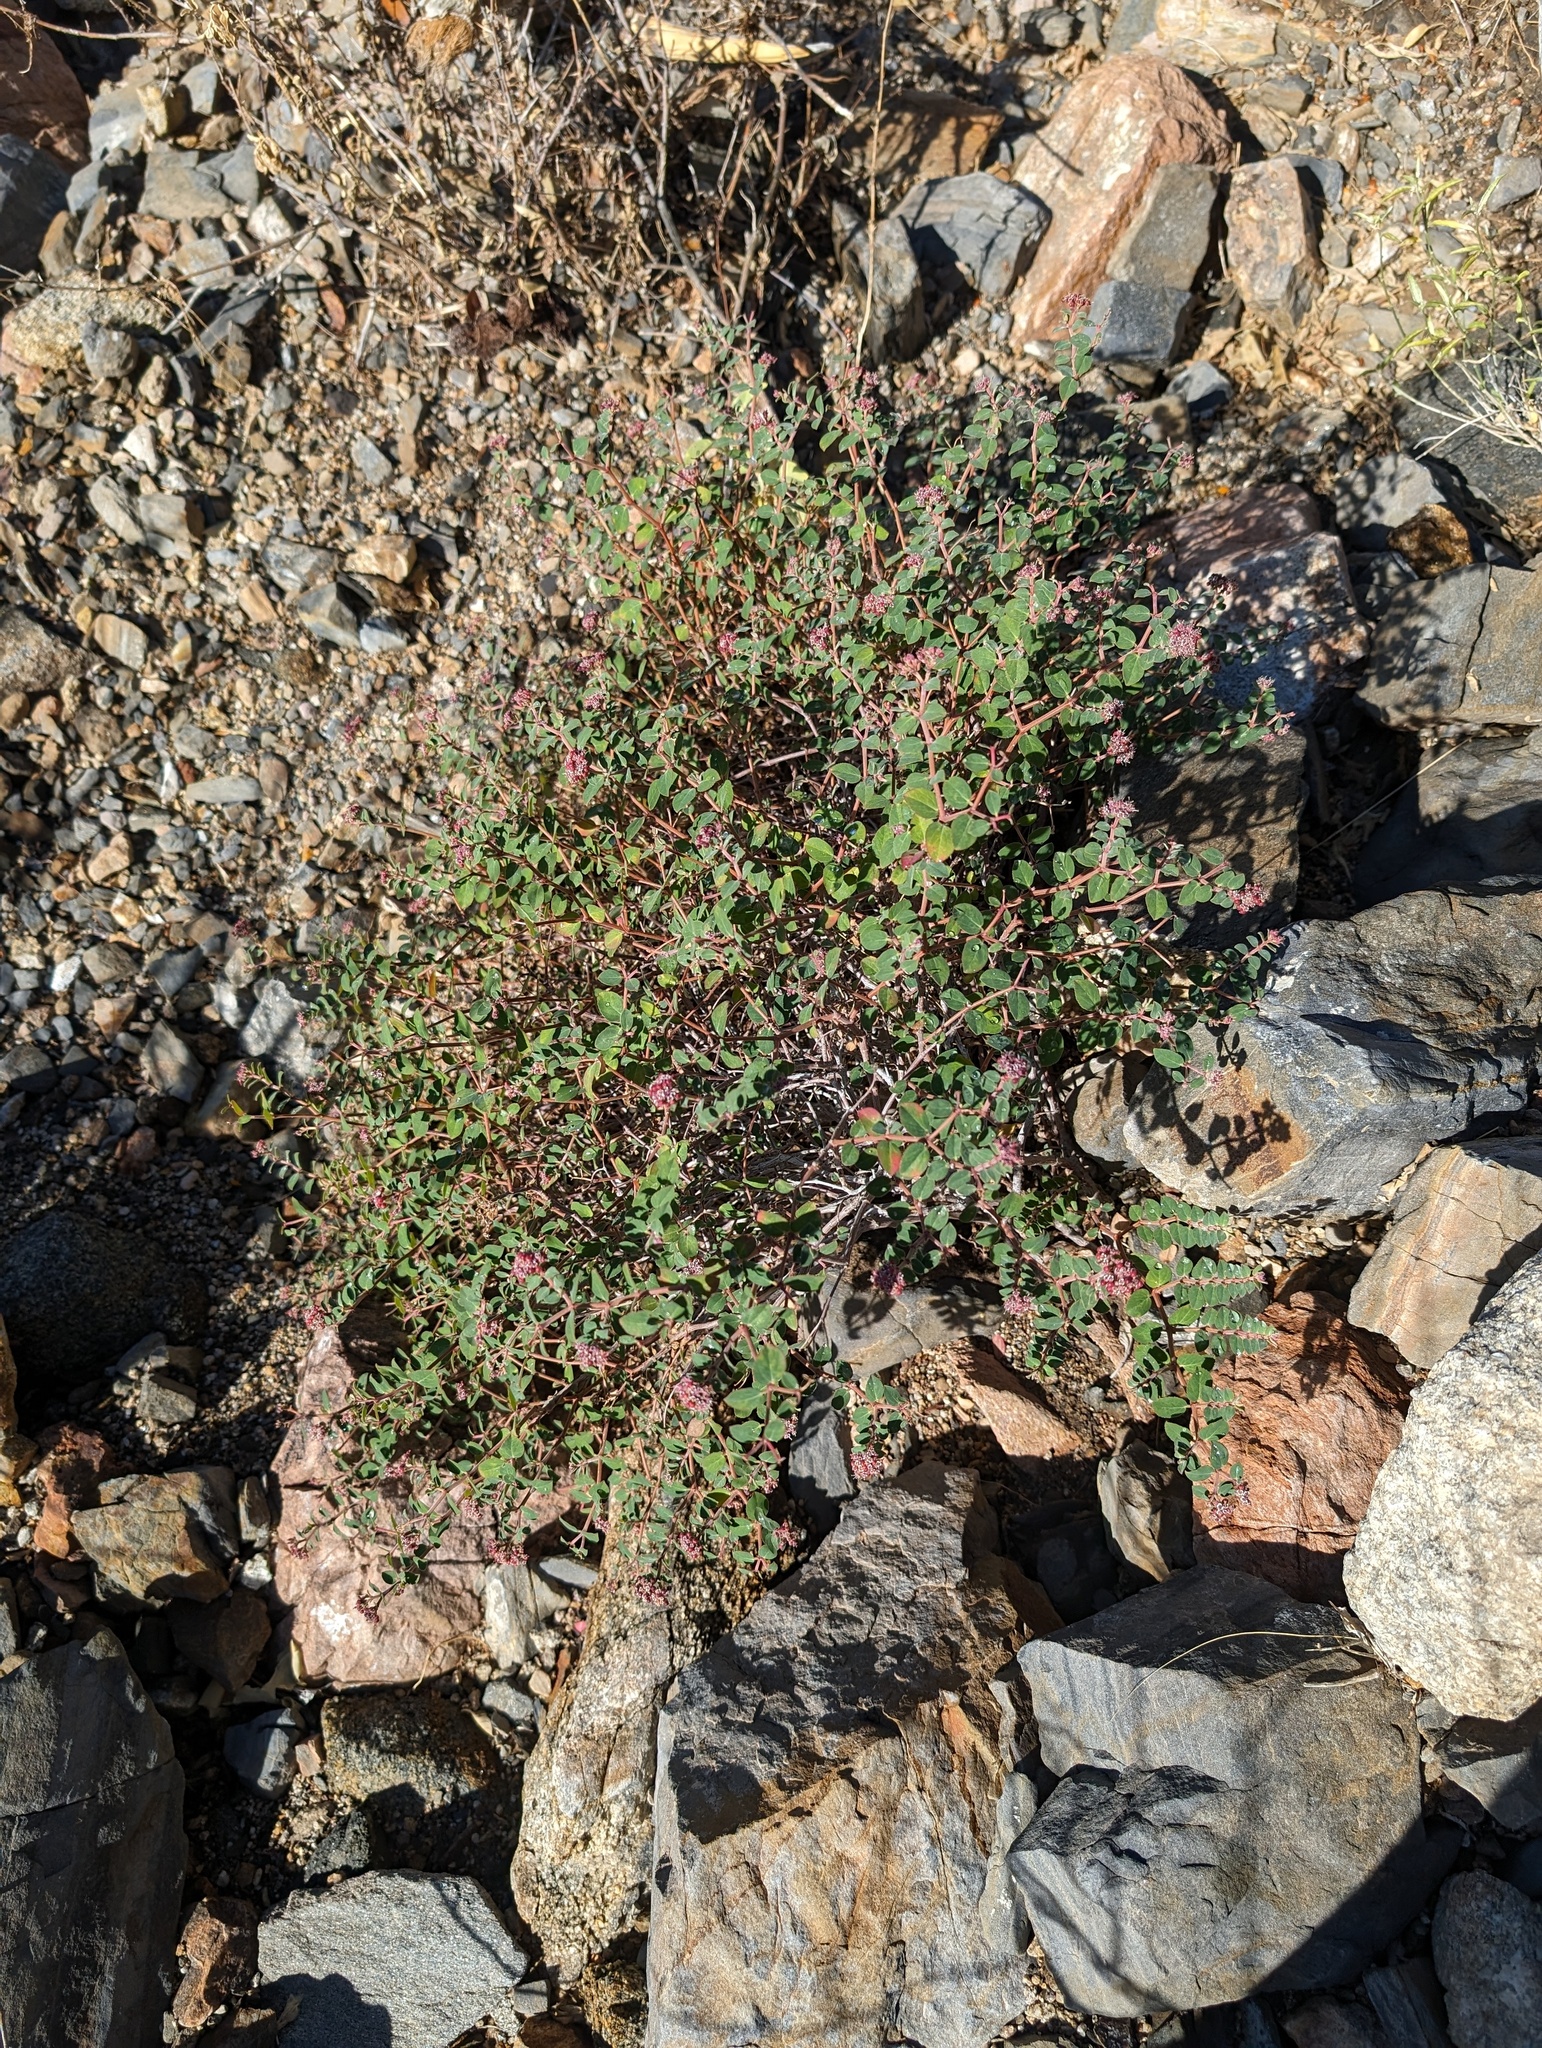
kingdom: Plantae
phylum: Tracheophyta
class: Magnoliopsida
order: Malpighiales
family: Euphorbiaceae
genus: Euphorbia
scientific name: Euphorbia tomentulosa
